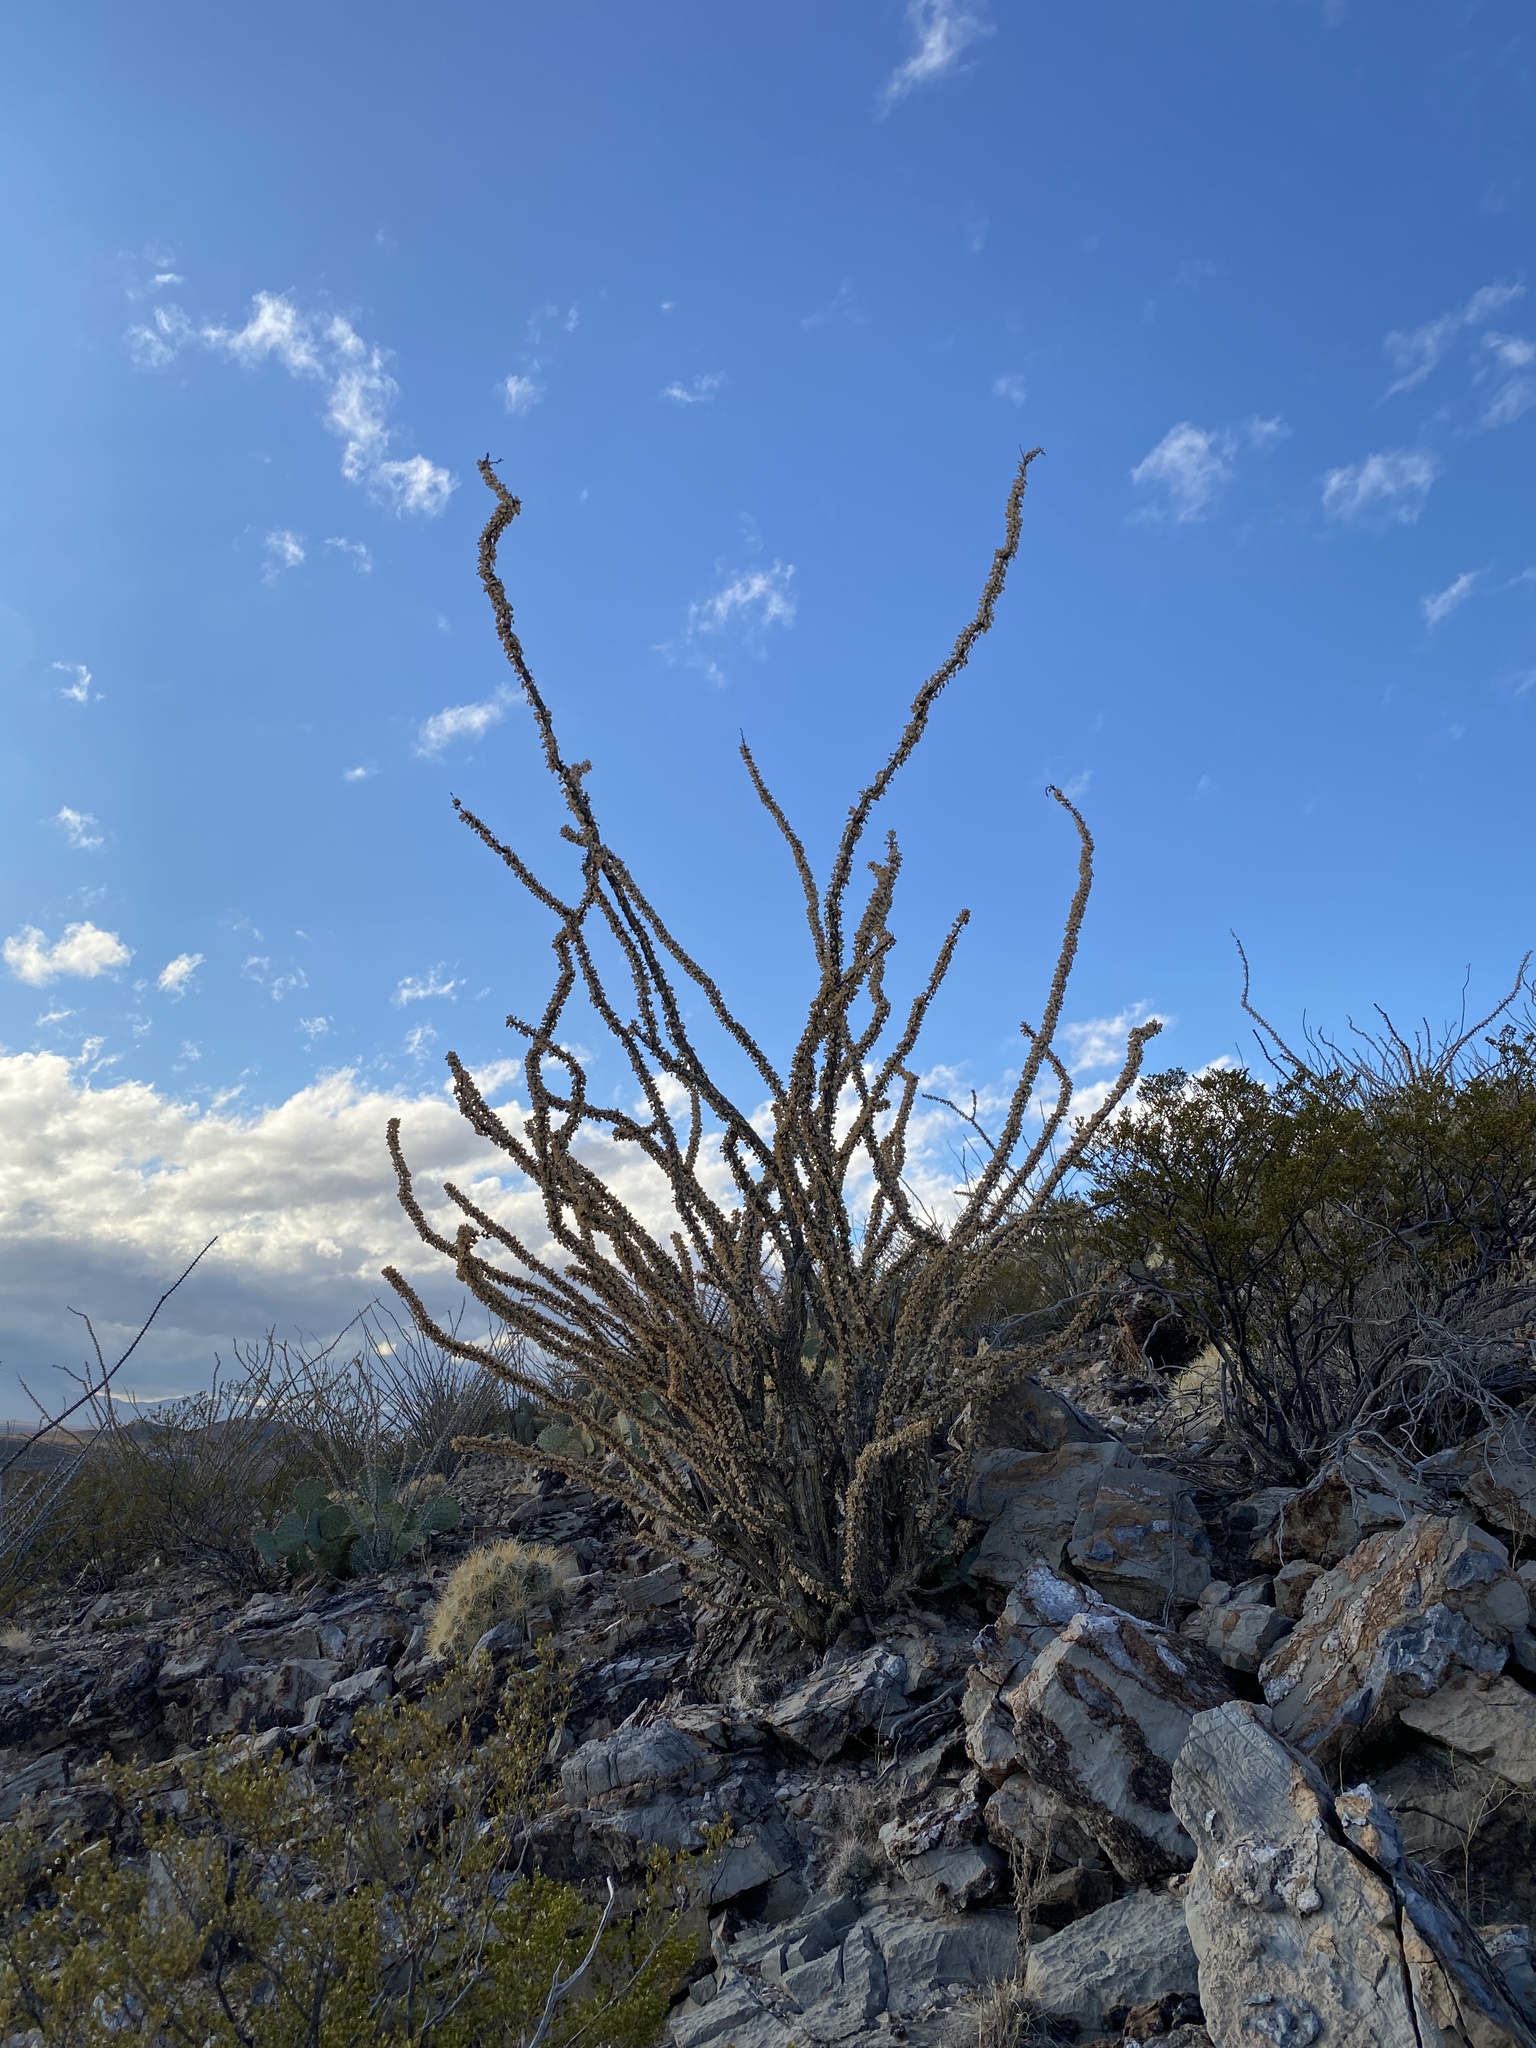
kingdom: Plantae
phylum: Tracheophyta
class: Magnoliopsida
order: Ericales
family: Fouquieriaceae
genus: Fouquieria
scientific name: Fouquieria splendens
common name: Vine-cactus
